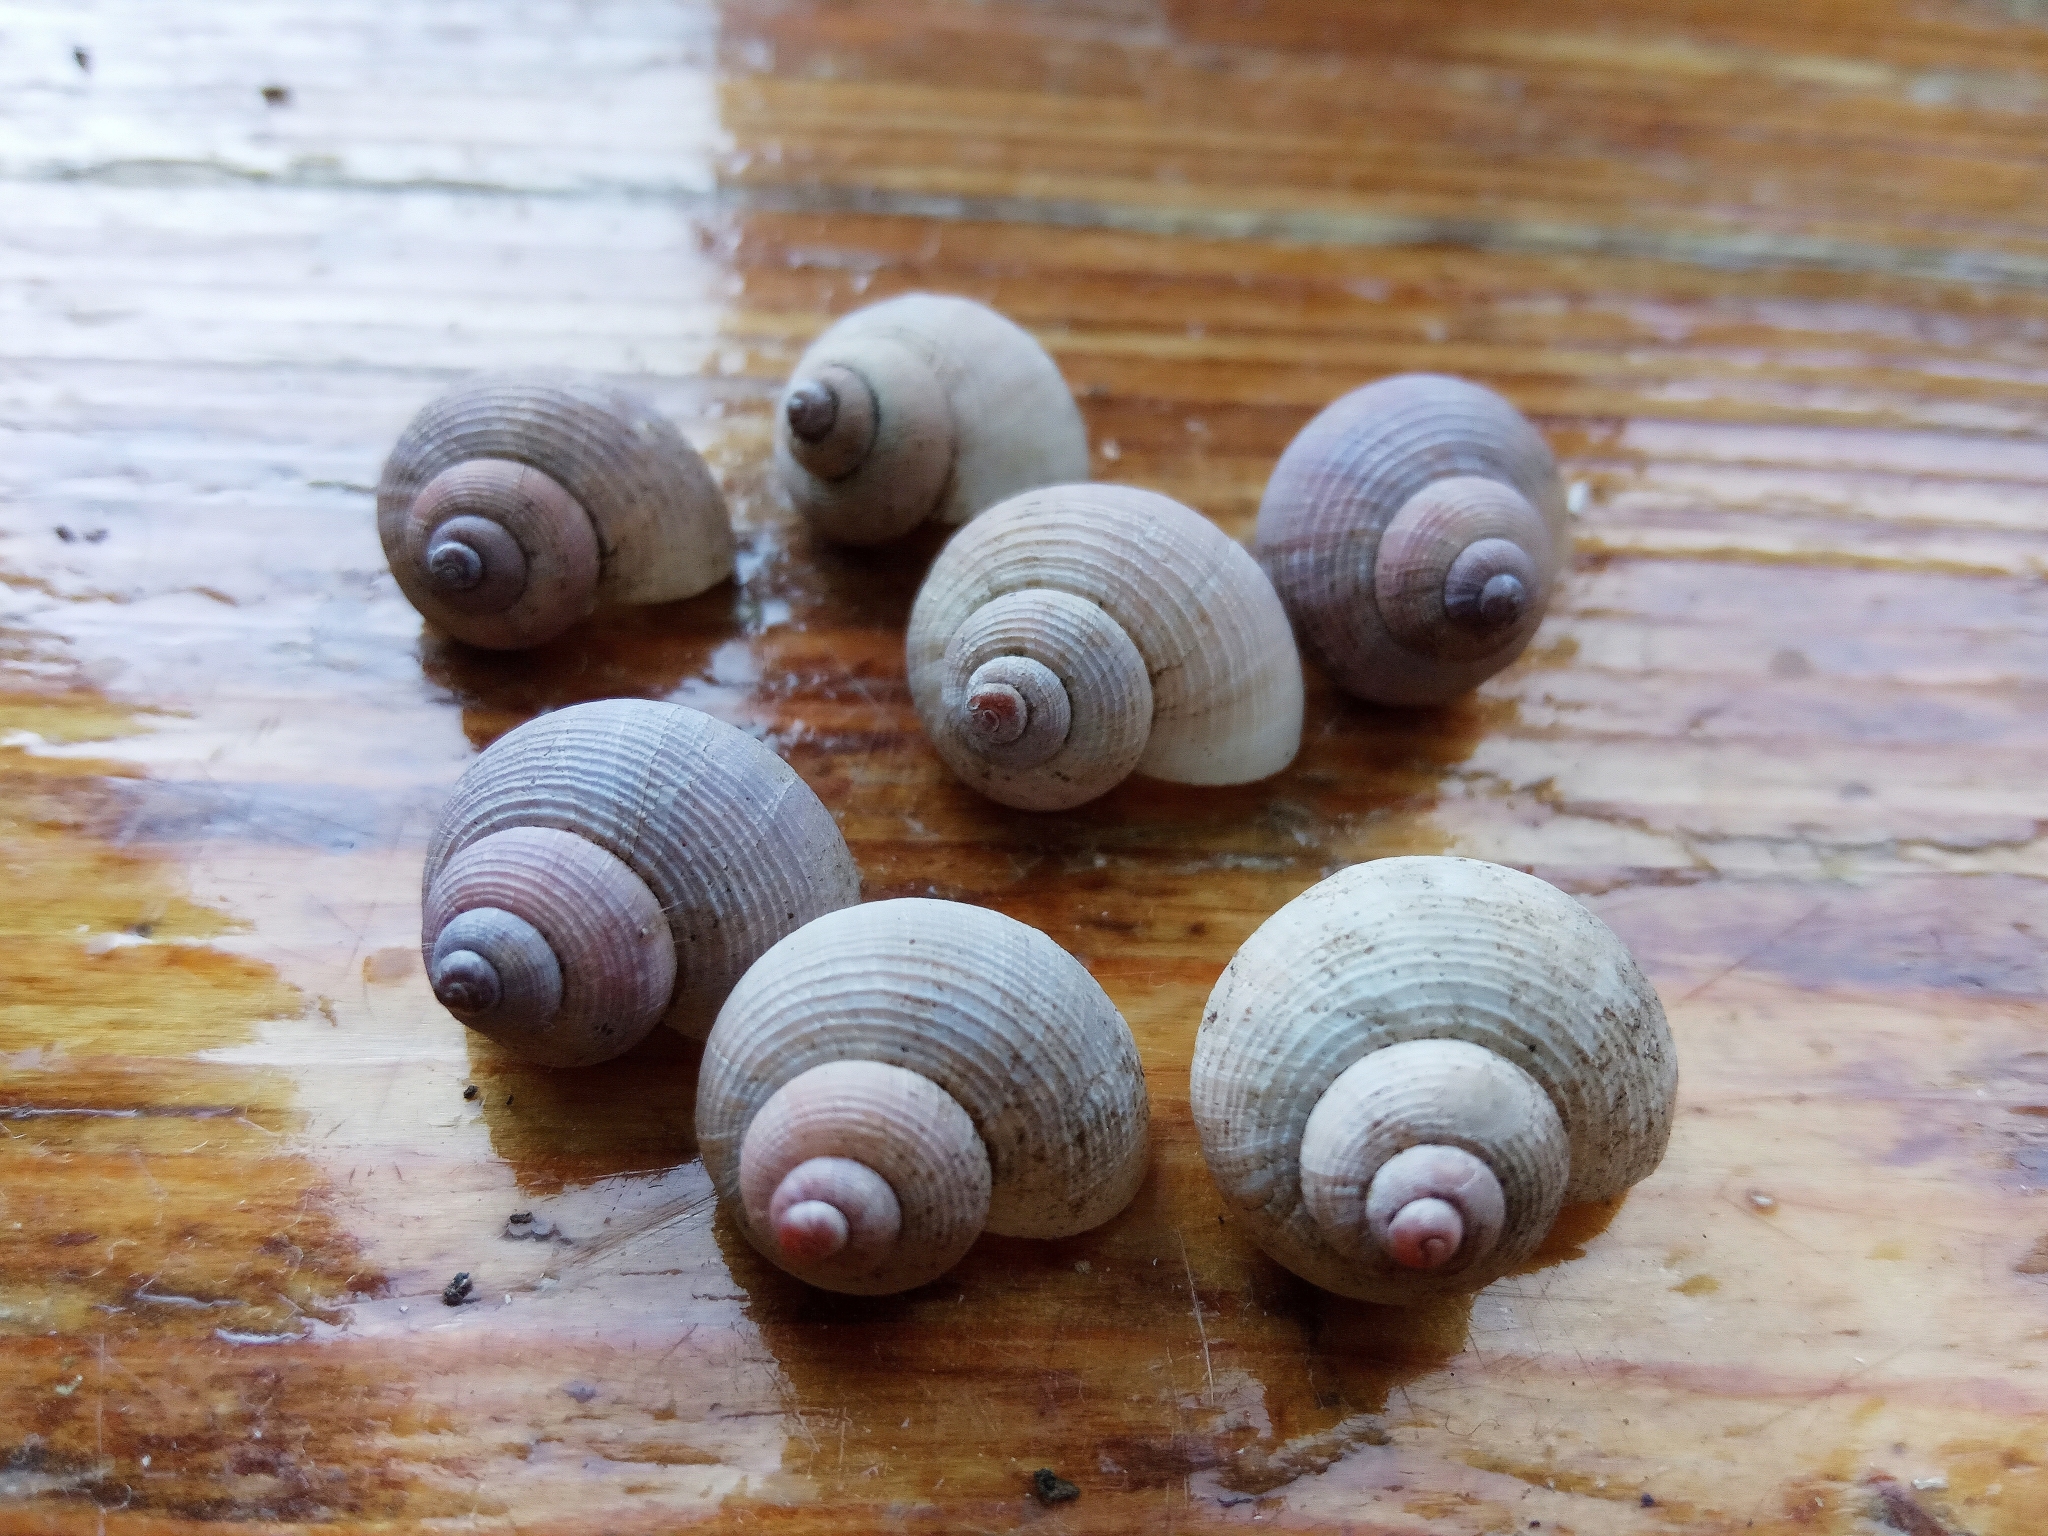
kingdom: Animalia
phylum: Mollusca
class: Gastropoda
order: Littorinimorpha
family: Pomatiidae
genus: Pomatias
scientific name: Pomatias rivularis
